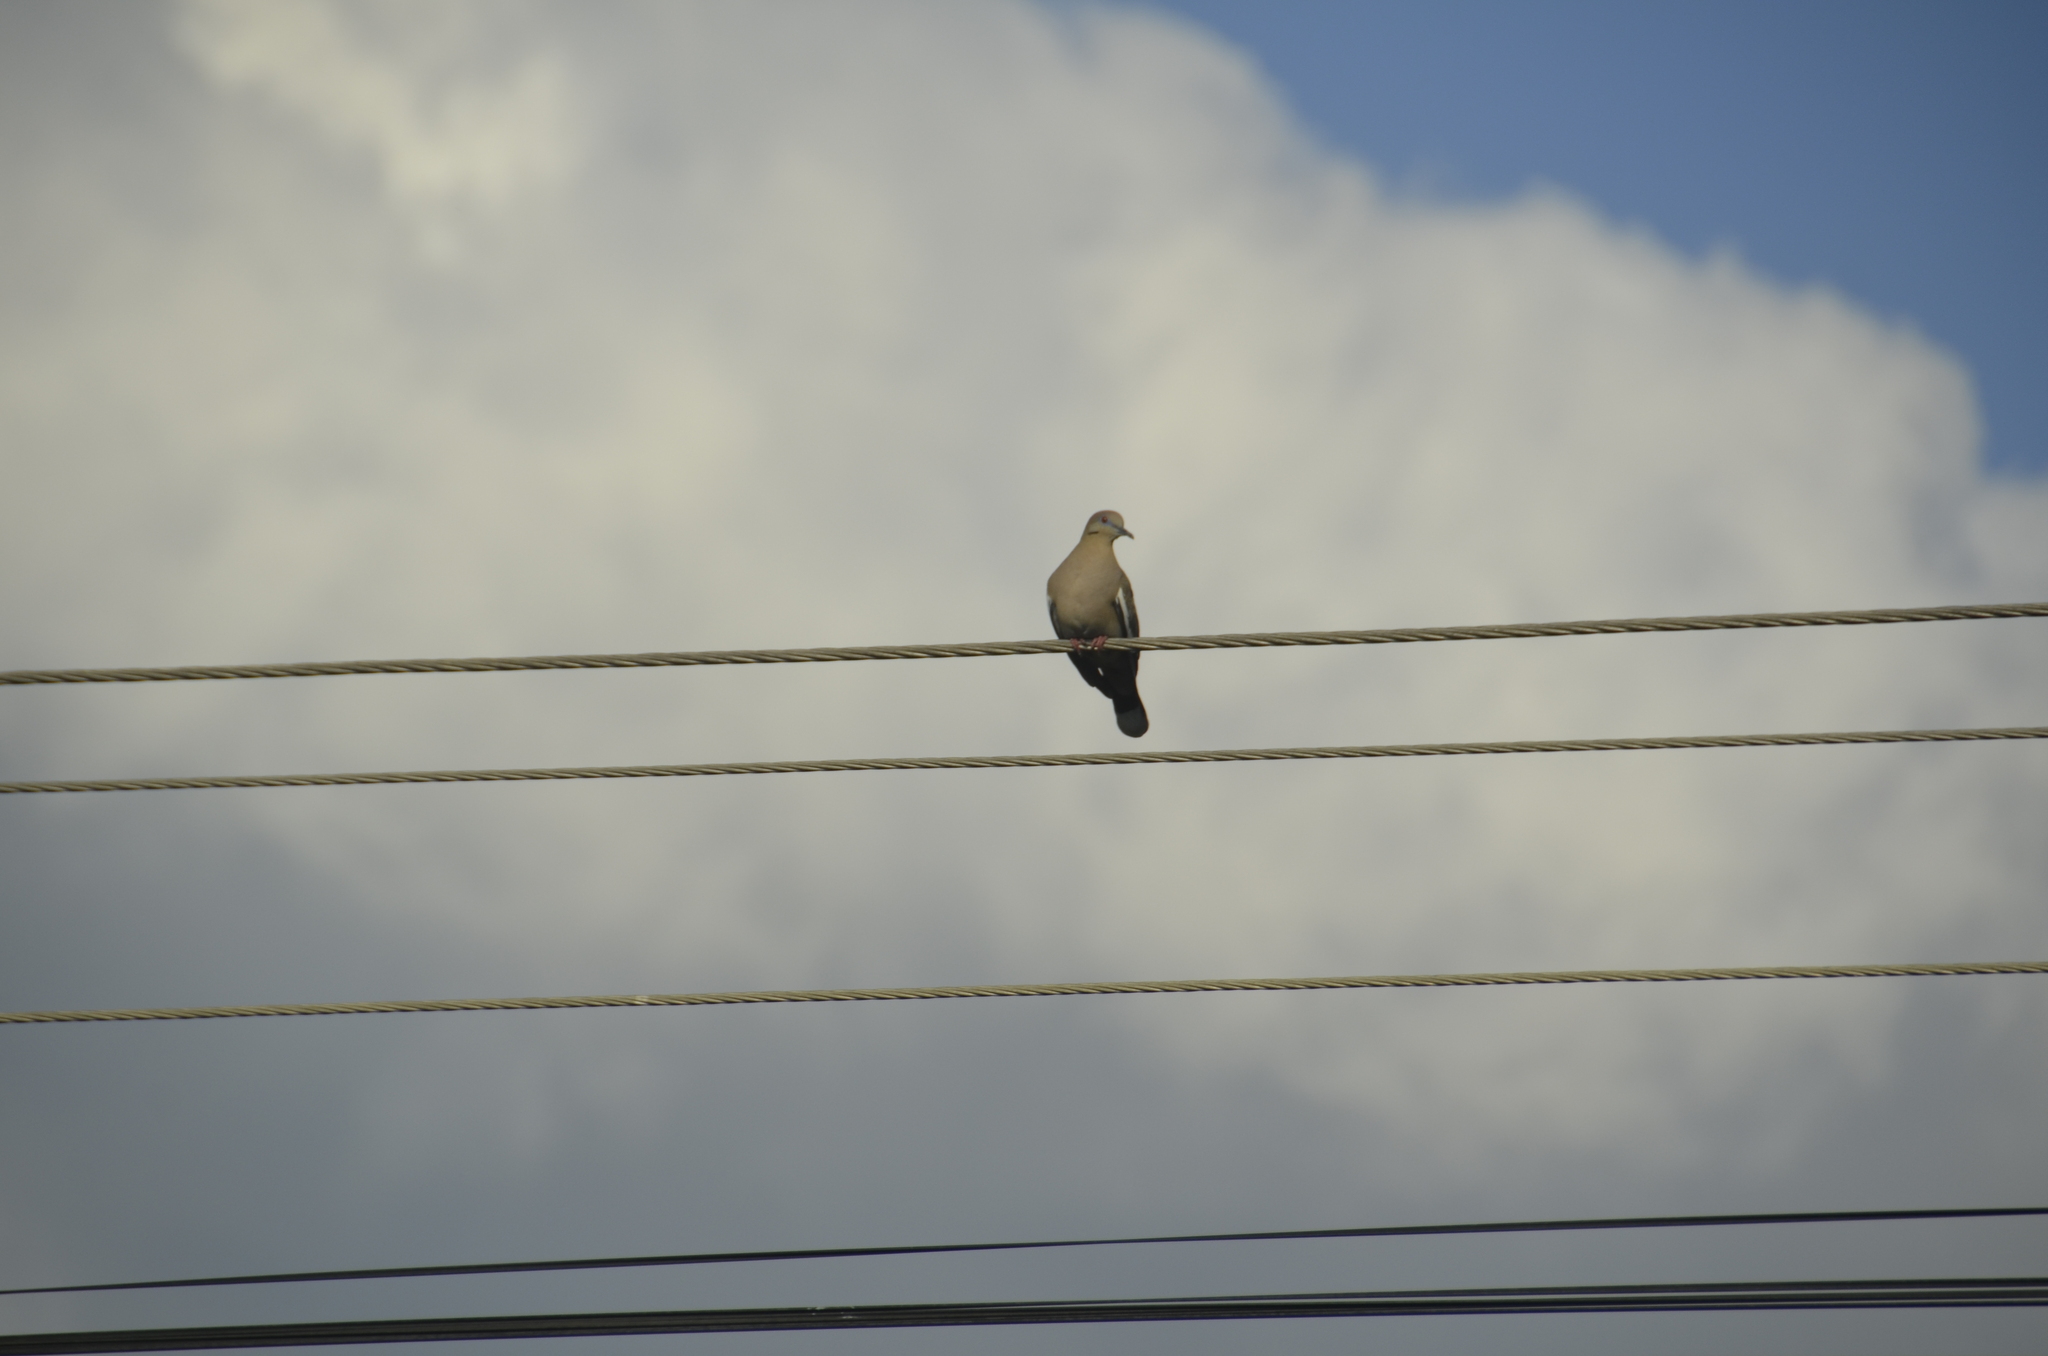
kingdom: Animalia
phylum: Chordata
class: Aves
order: Columbiformes
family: Columbidae
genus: Zenaida
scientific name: Zenaida asiatica
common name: White-winged dove
